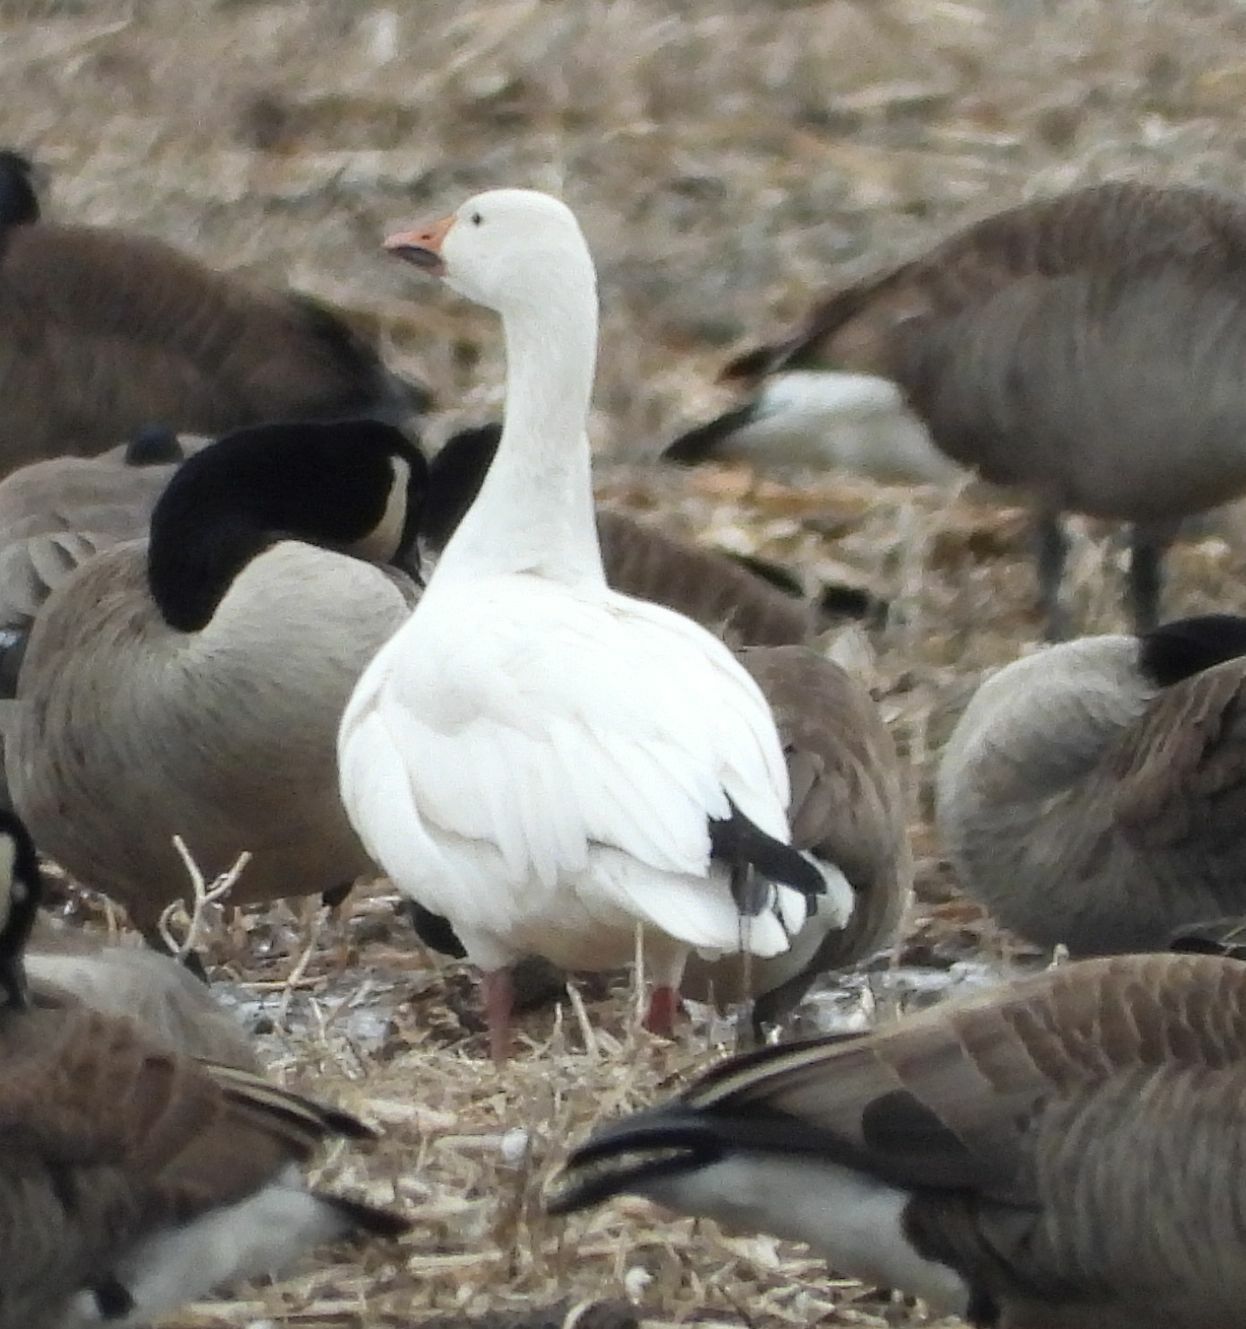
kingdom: Animalia
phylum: Chordata
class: Aves
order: Anseriformes
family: Anatidae
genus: Anser
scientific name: Anser caerulescens
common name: Snow goose
